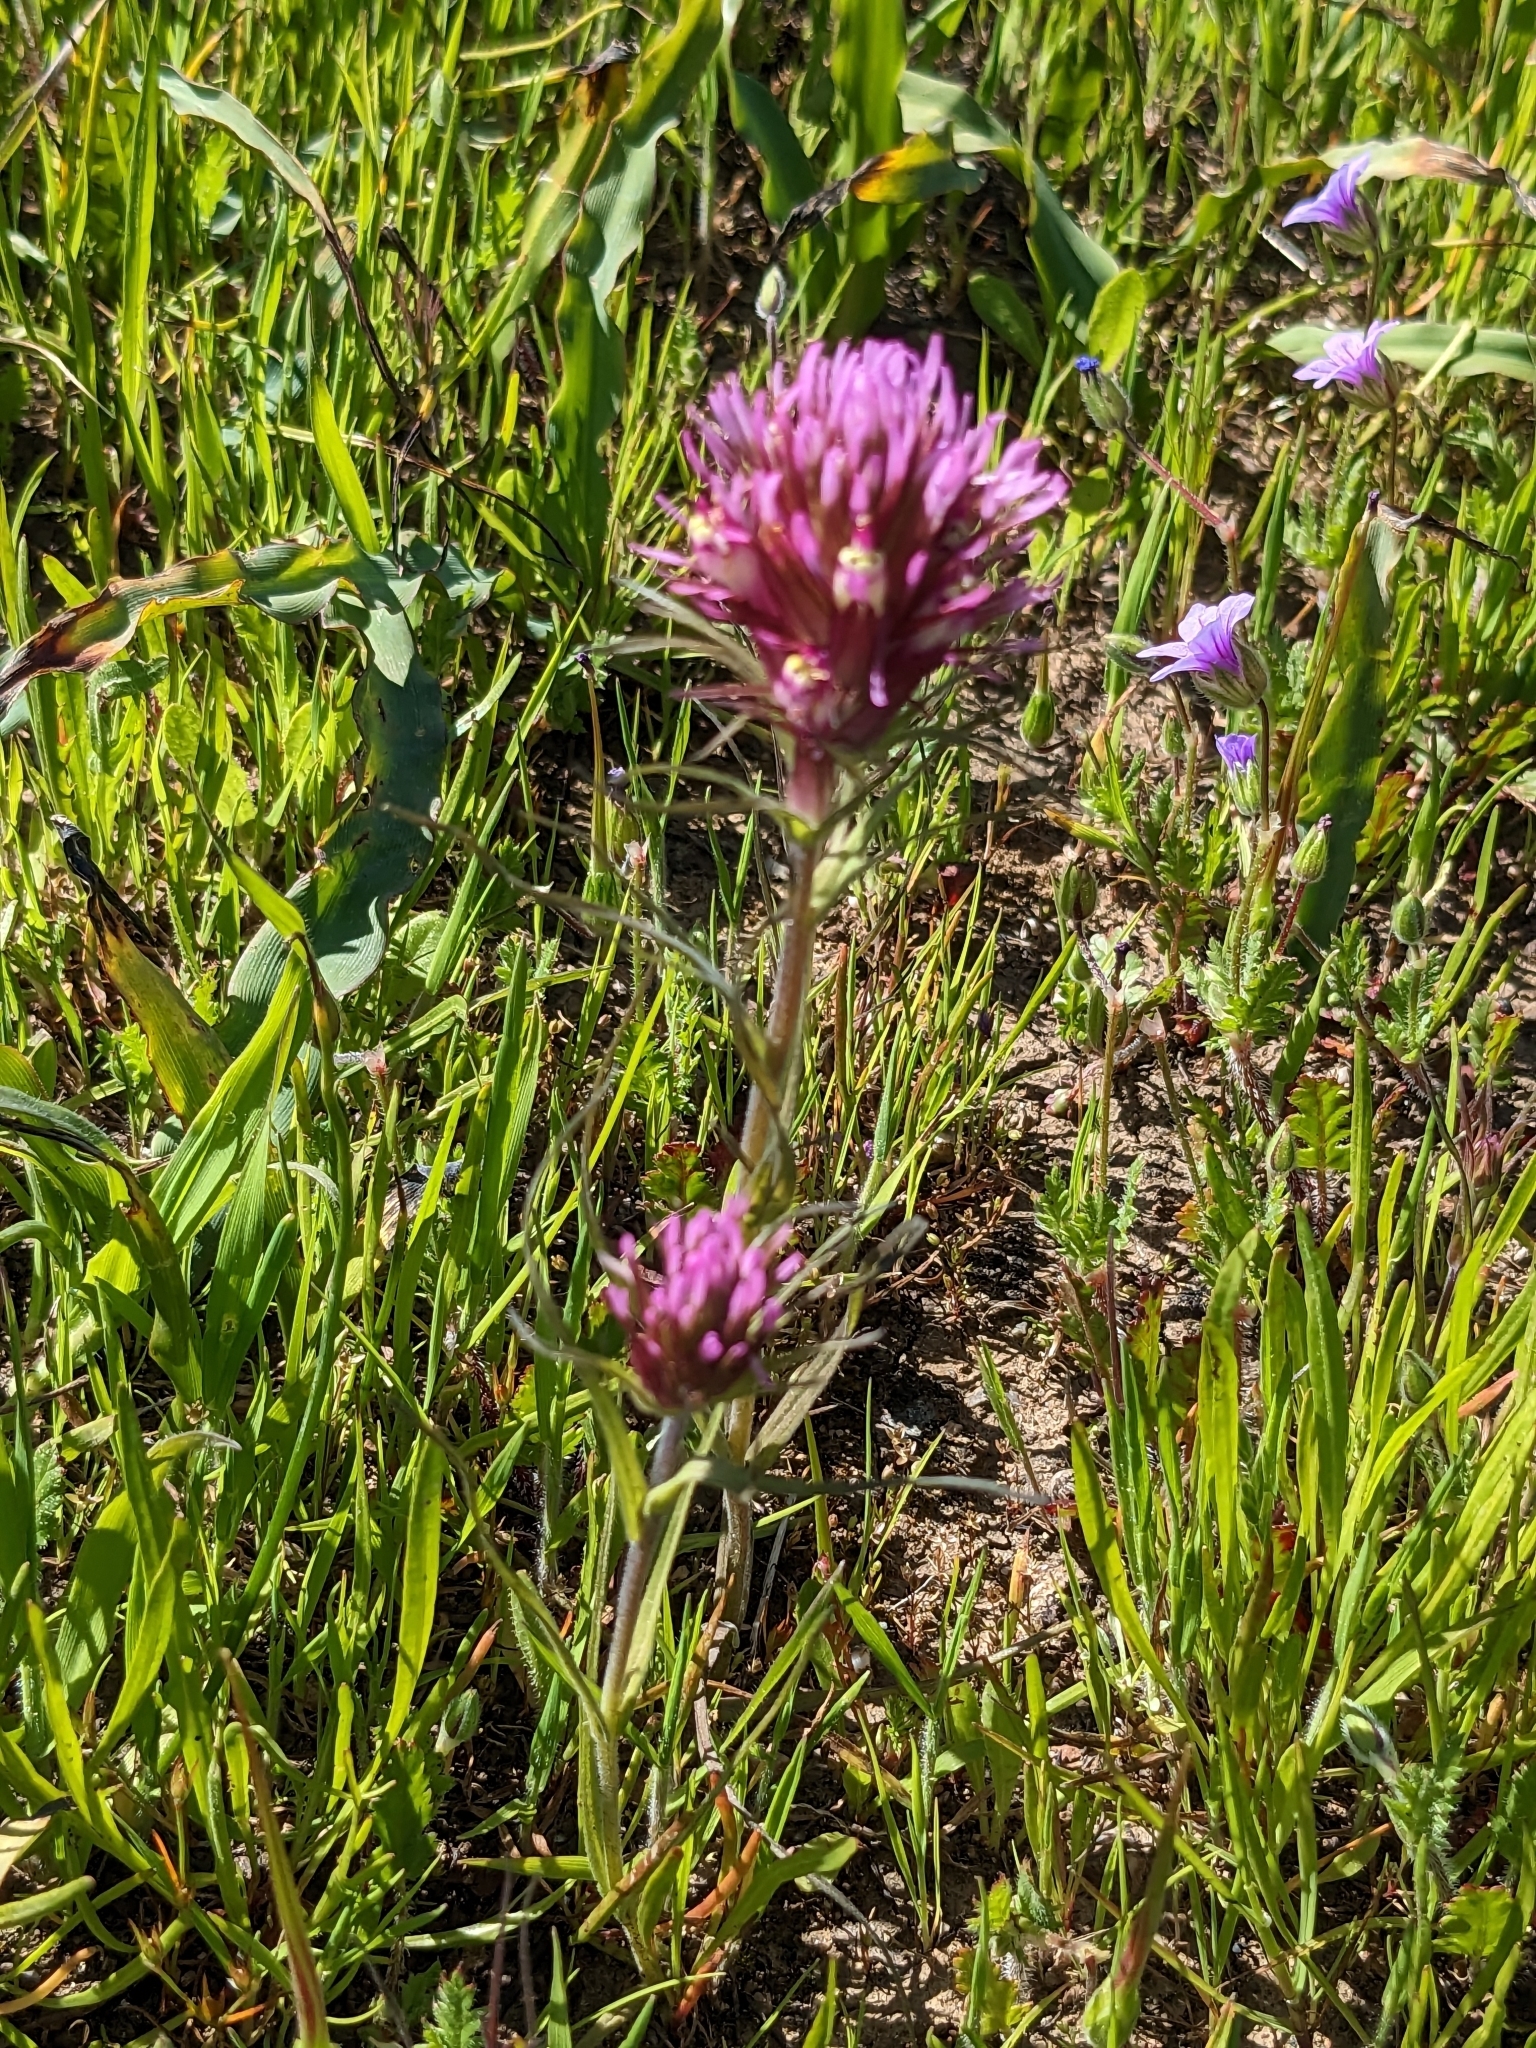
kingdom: Plantae
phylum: Tracheophyta
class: Magnoliopsida
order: Lamiales
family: Orobanchaceae
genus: Castilleja
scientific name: Castilleja densiflora
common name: Dense-flower indian paintbrush
